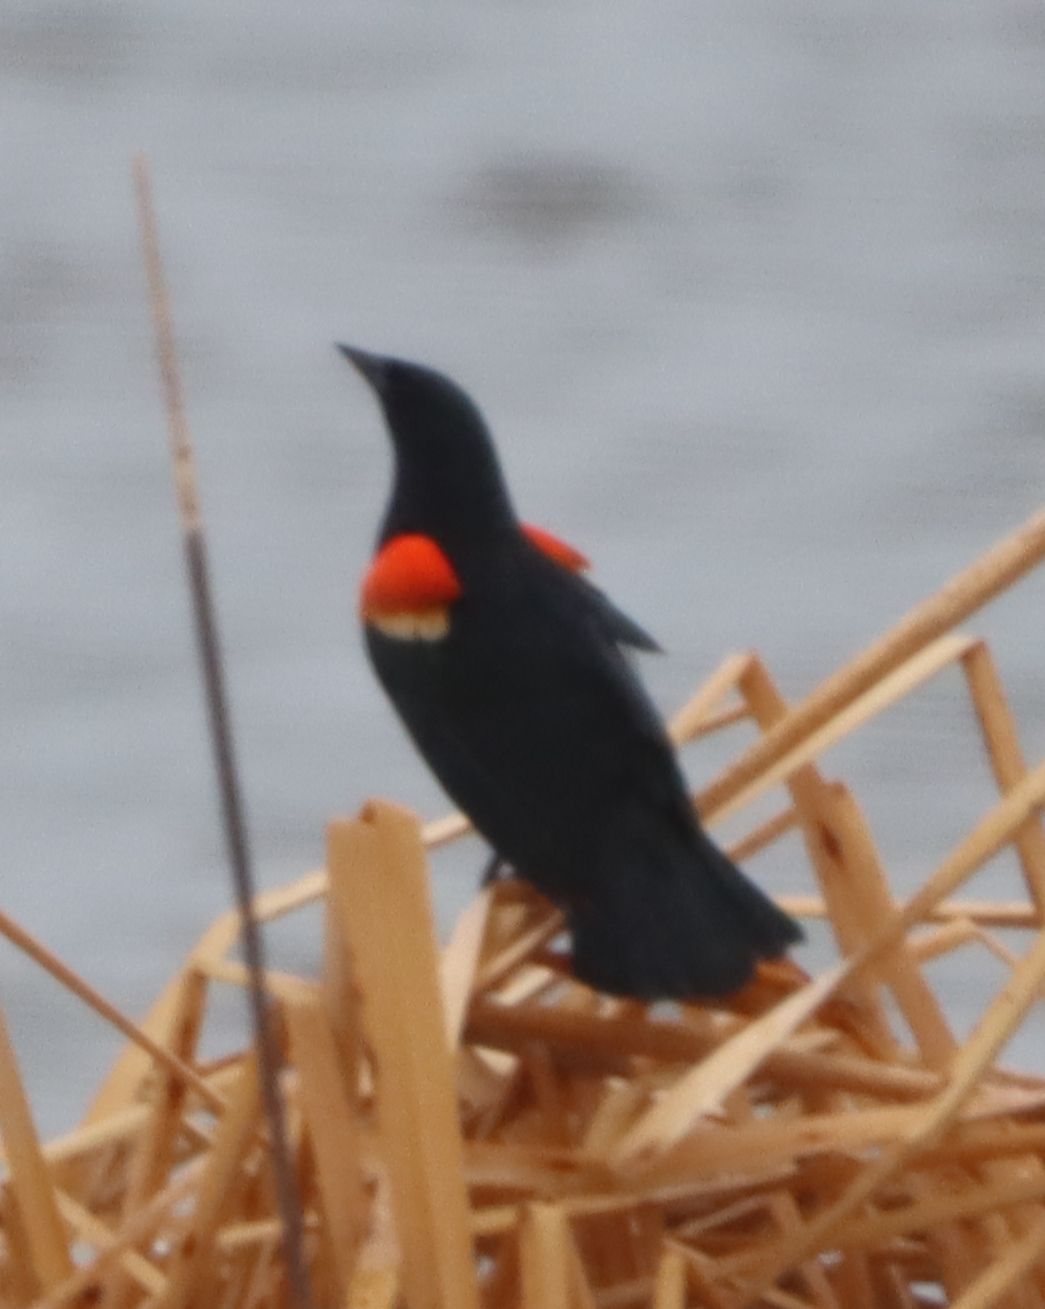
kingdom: Animalia
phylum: Chordata
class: Aves
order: Passeriformes
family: Icteridae
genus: Agelaius
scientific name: Agelaius phoeniceus
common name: Red-winged blackbird
